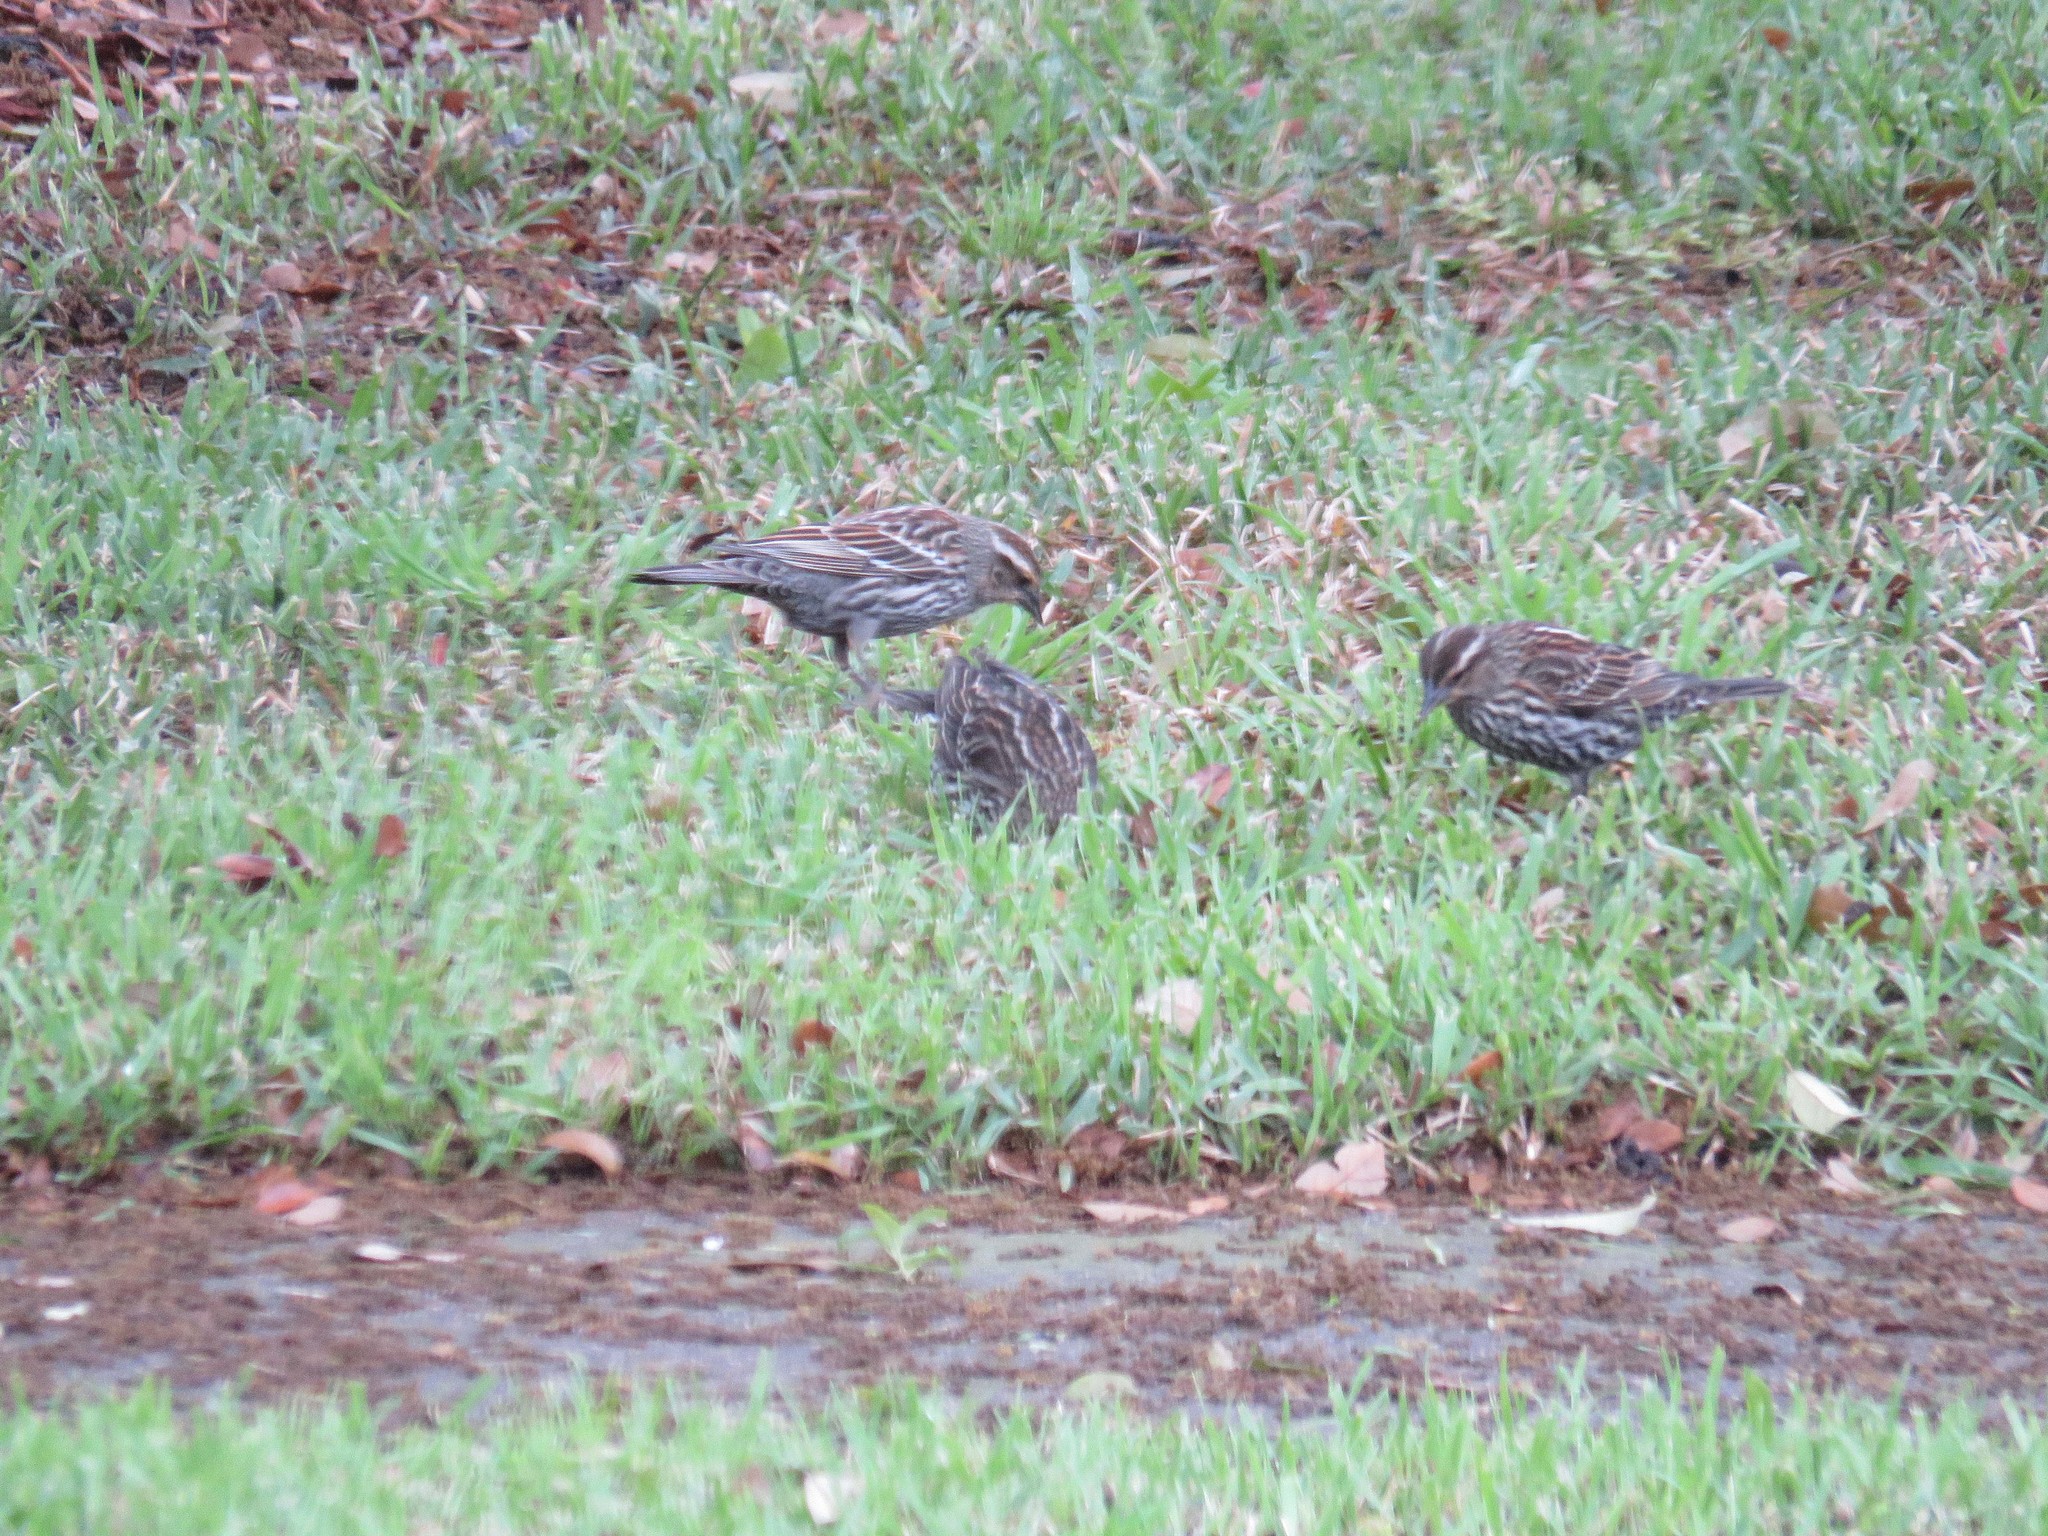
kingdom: Animalia
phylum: Chordata
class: Aves
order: Passeriformes
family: Icteridae
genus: Agelaius
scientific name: Agelaius phoeniceus
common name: Red-winged blackbird
